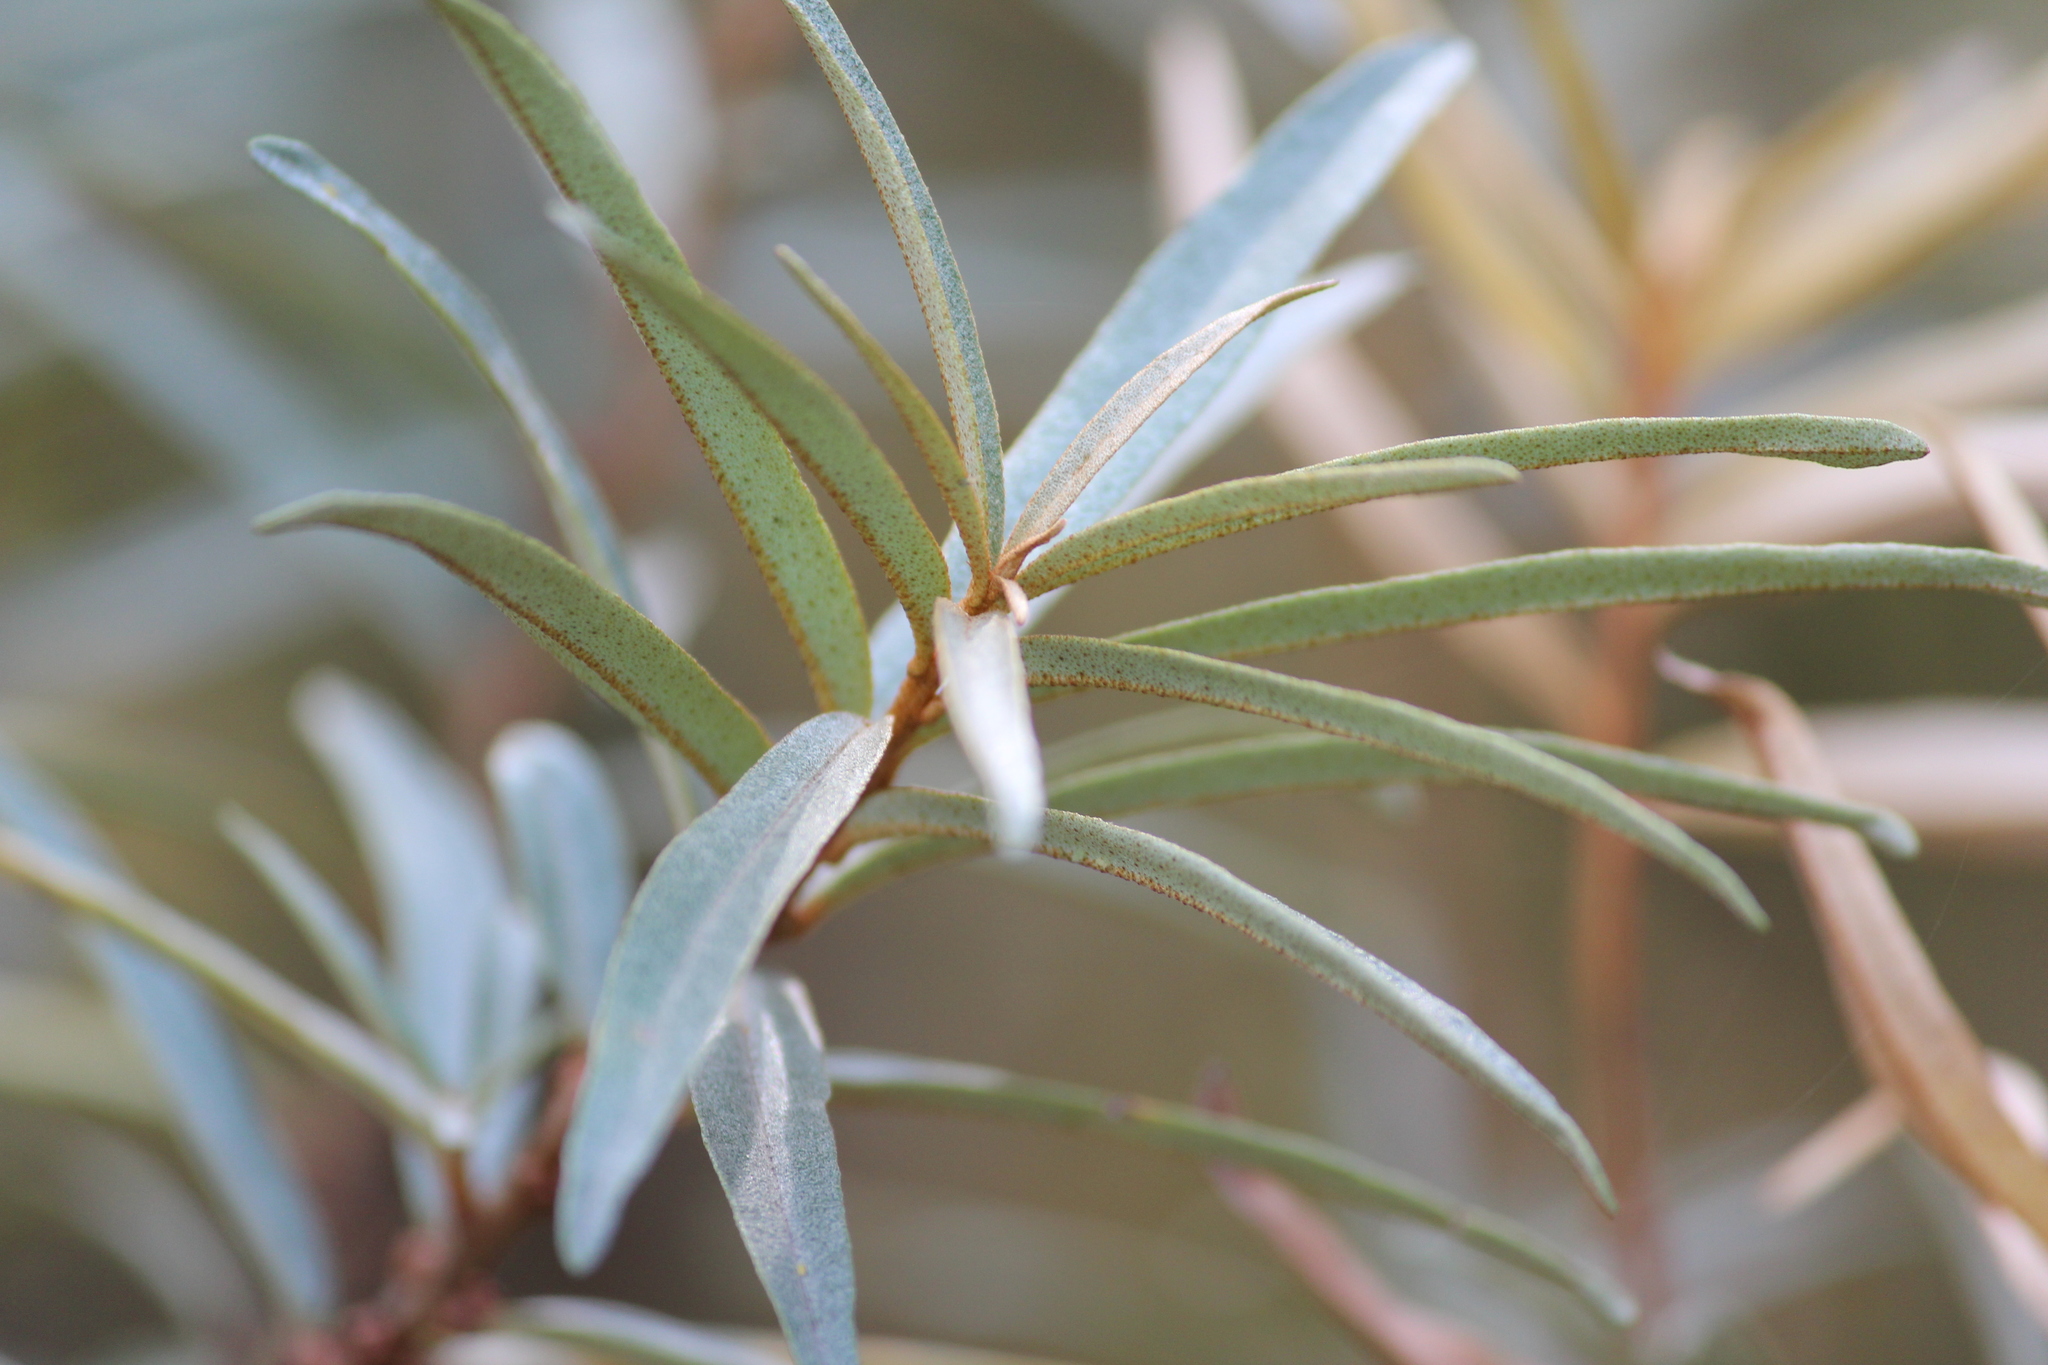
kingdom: Plantae
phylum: Tracheophyta
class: Magnoliopsida
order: Rosales
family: Elaeagnaceae
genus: Hippophae
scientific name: Hippophae rhamnoides
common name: Sea-buckthorn
